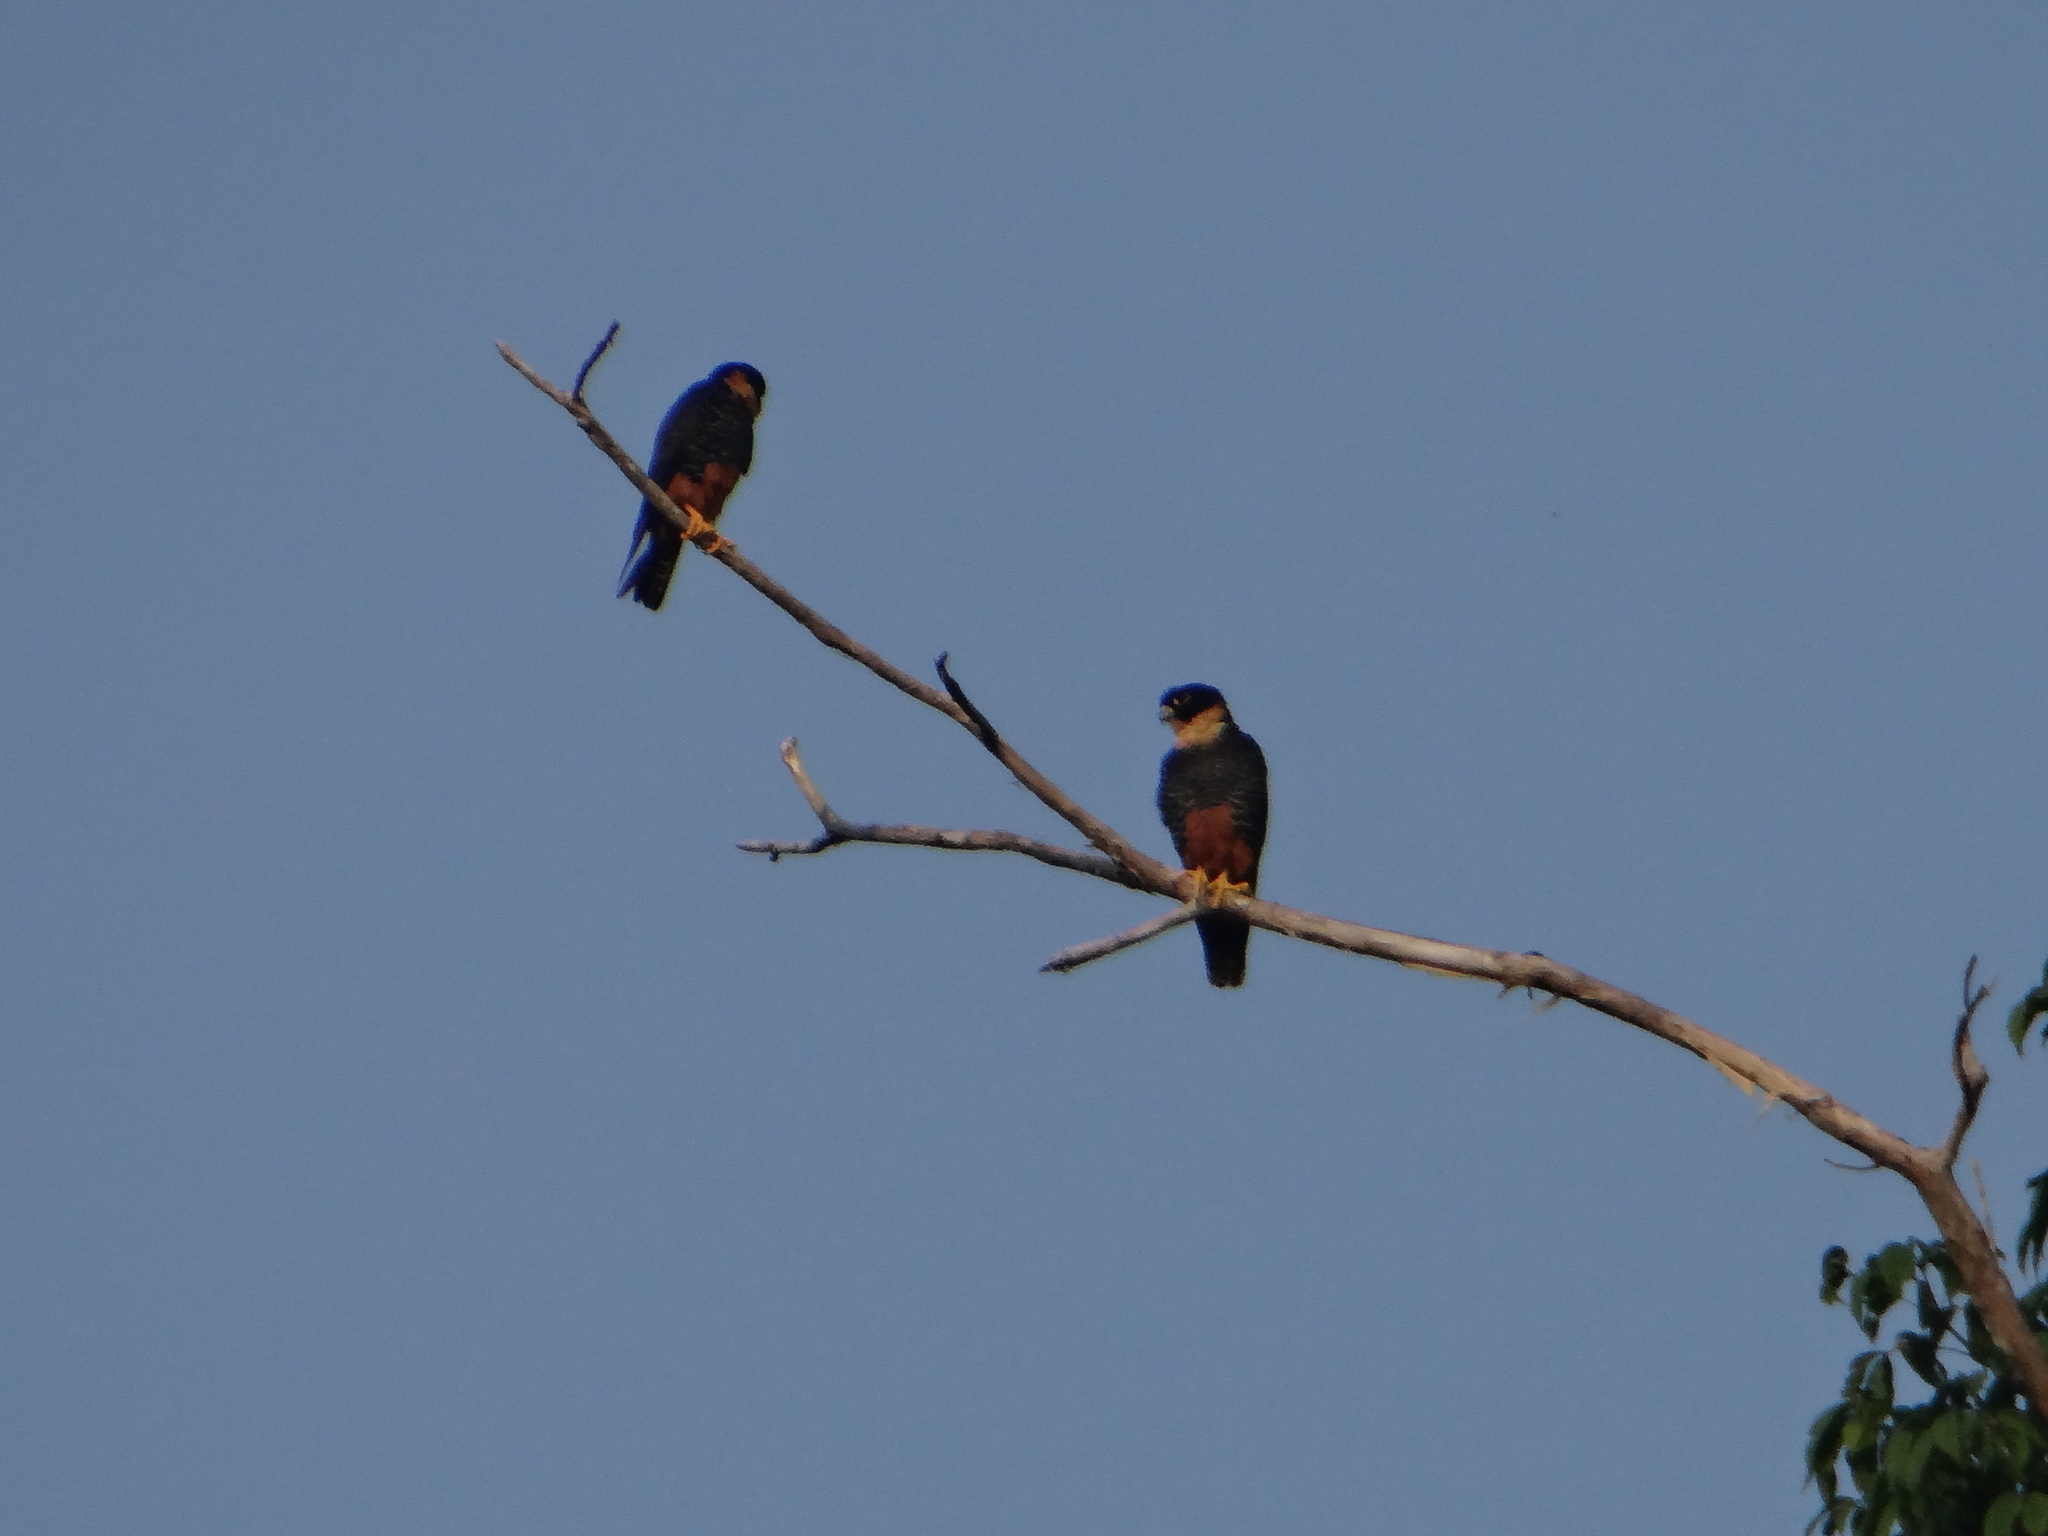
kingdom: Animalia
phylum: Chordata
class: Aves
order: Falconiformes
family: Falconidae
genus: Falco
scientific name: Falco rufigularis
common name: Bat falcon
